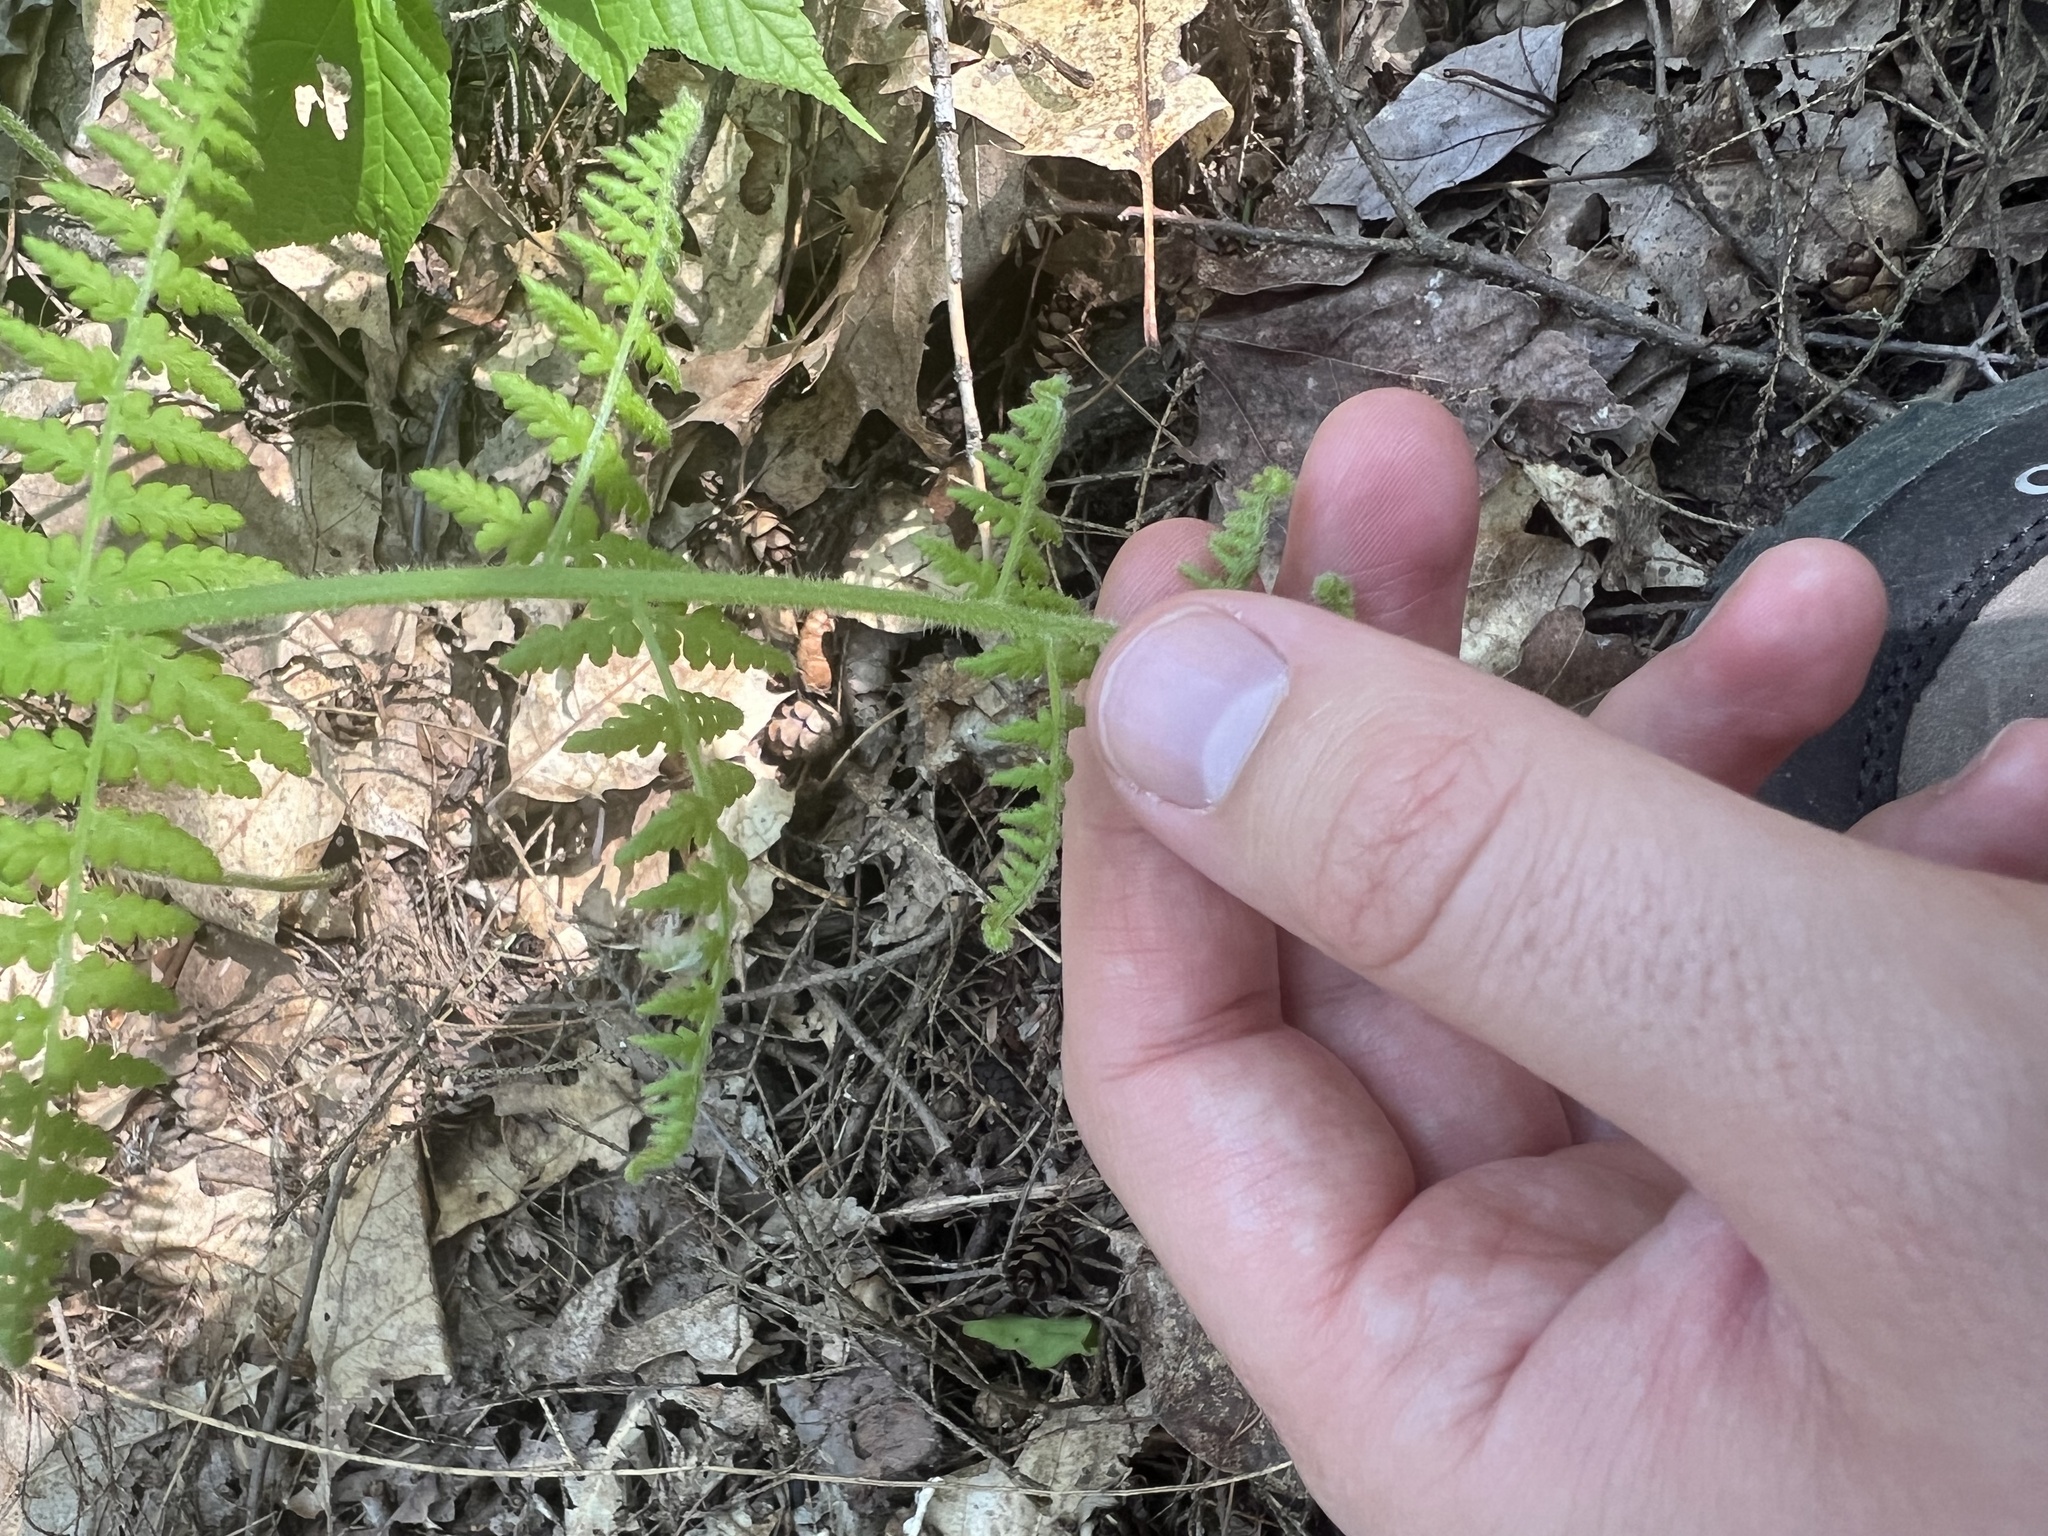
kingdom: Plantae
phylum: Tracheophyta
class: Polypodiopsida
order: Polypodiales
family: Dennstaedtiaceae
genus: Sitobolium
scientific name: Sitobolium punctilobum
